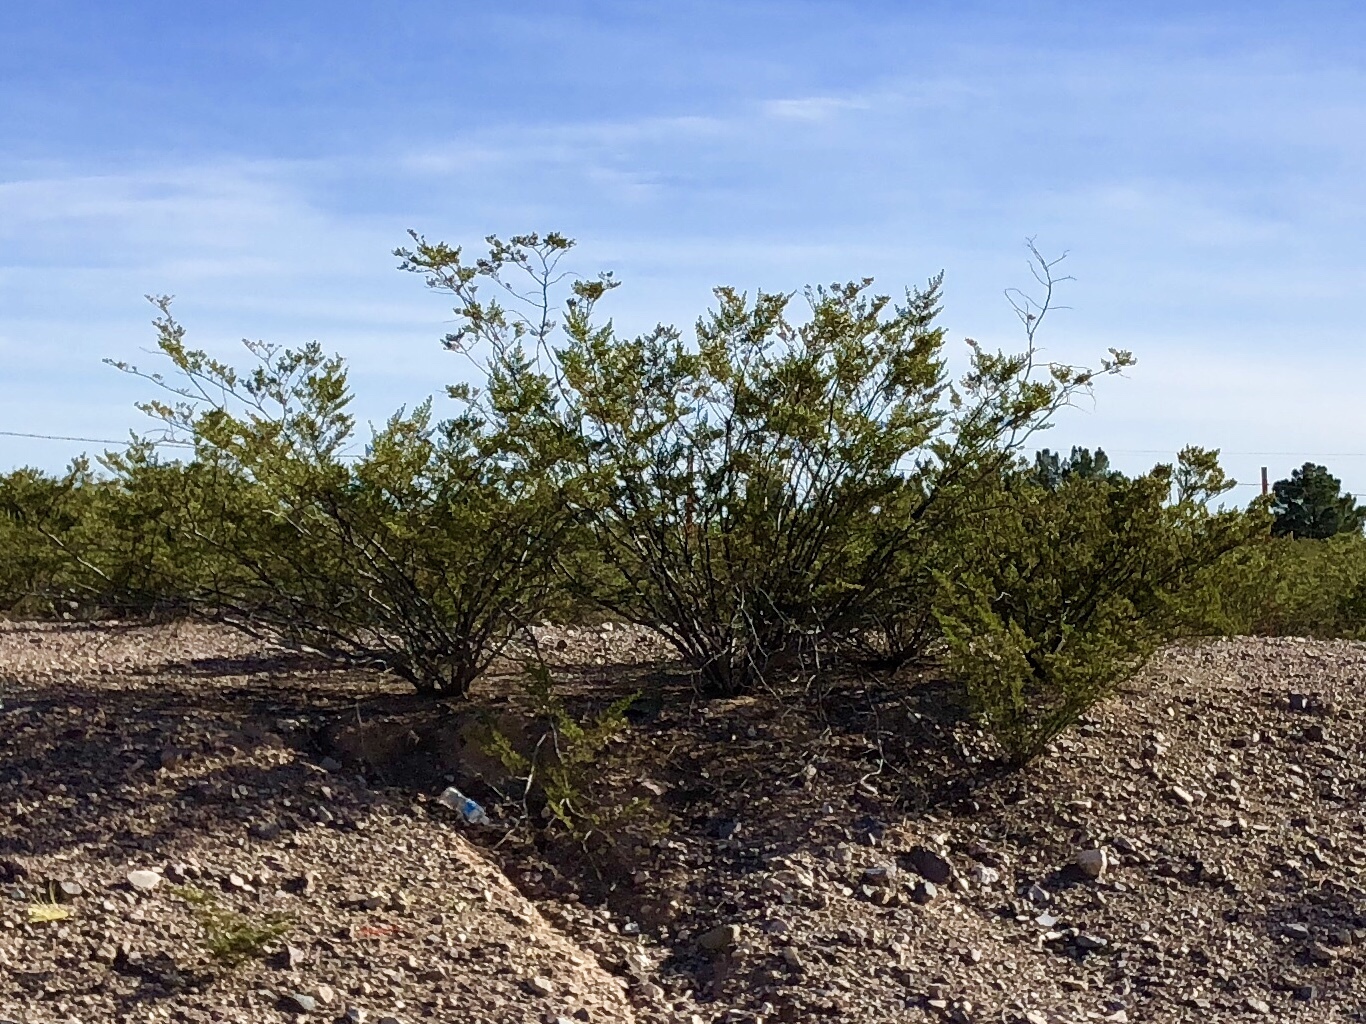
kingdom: Plantae
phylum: Tracheophyta
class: Magnoliopsida
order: Zygophyllales
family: Zygophyllaceae
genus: Larrea
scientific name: Larrea tridentata
